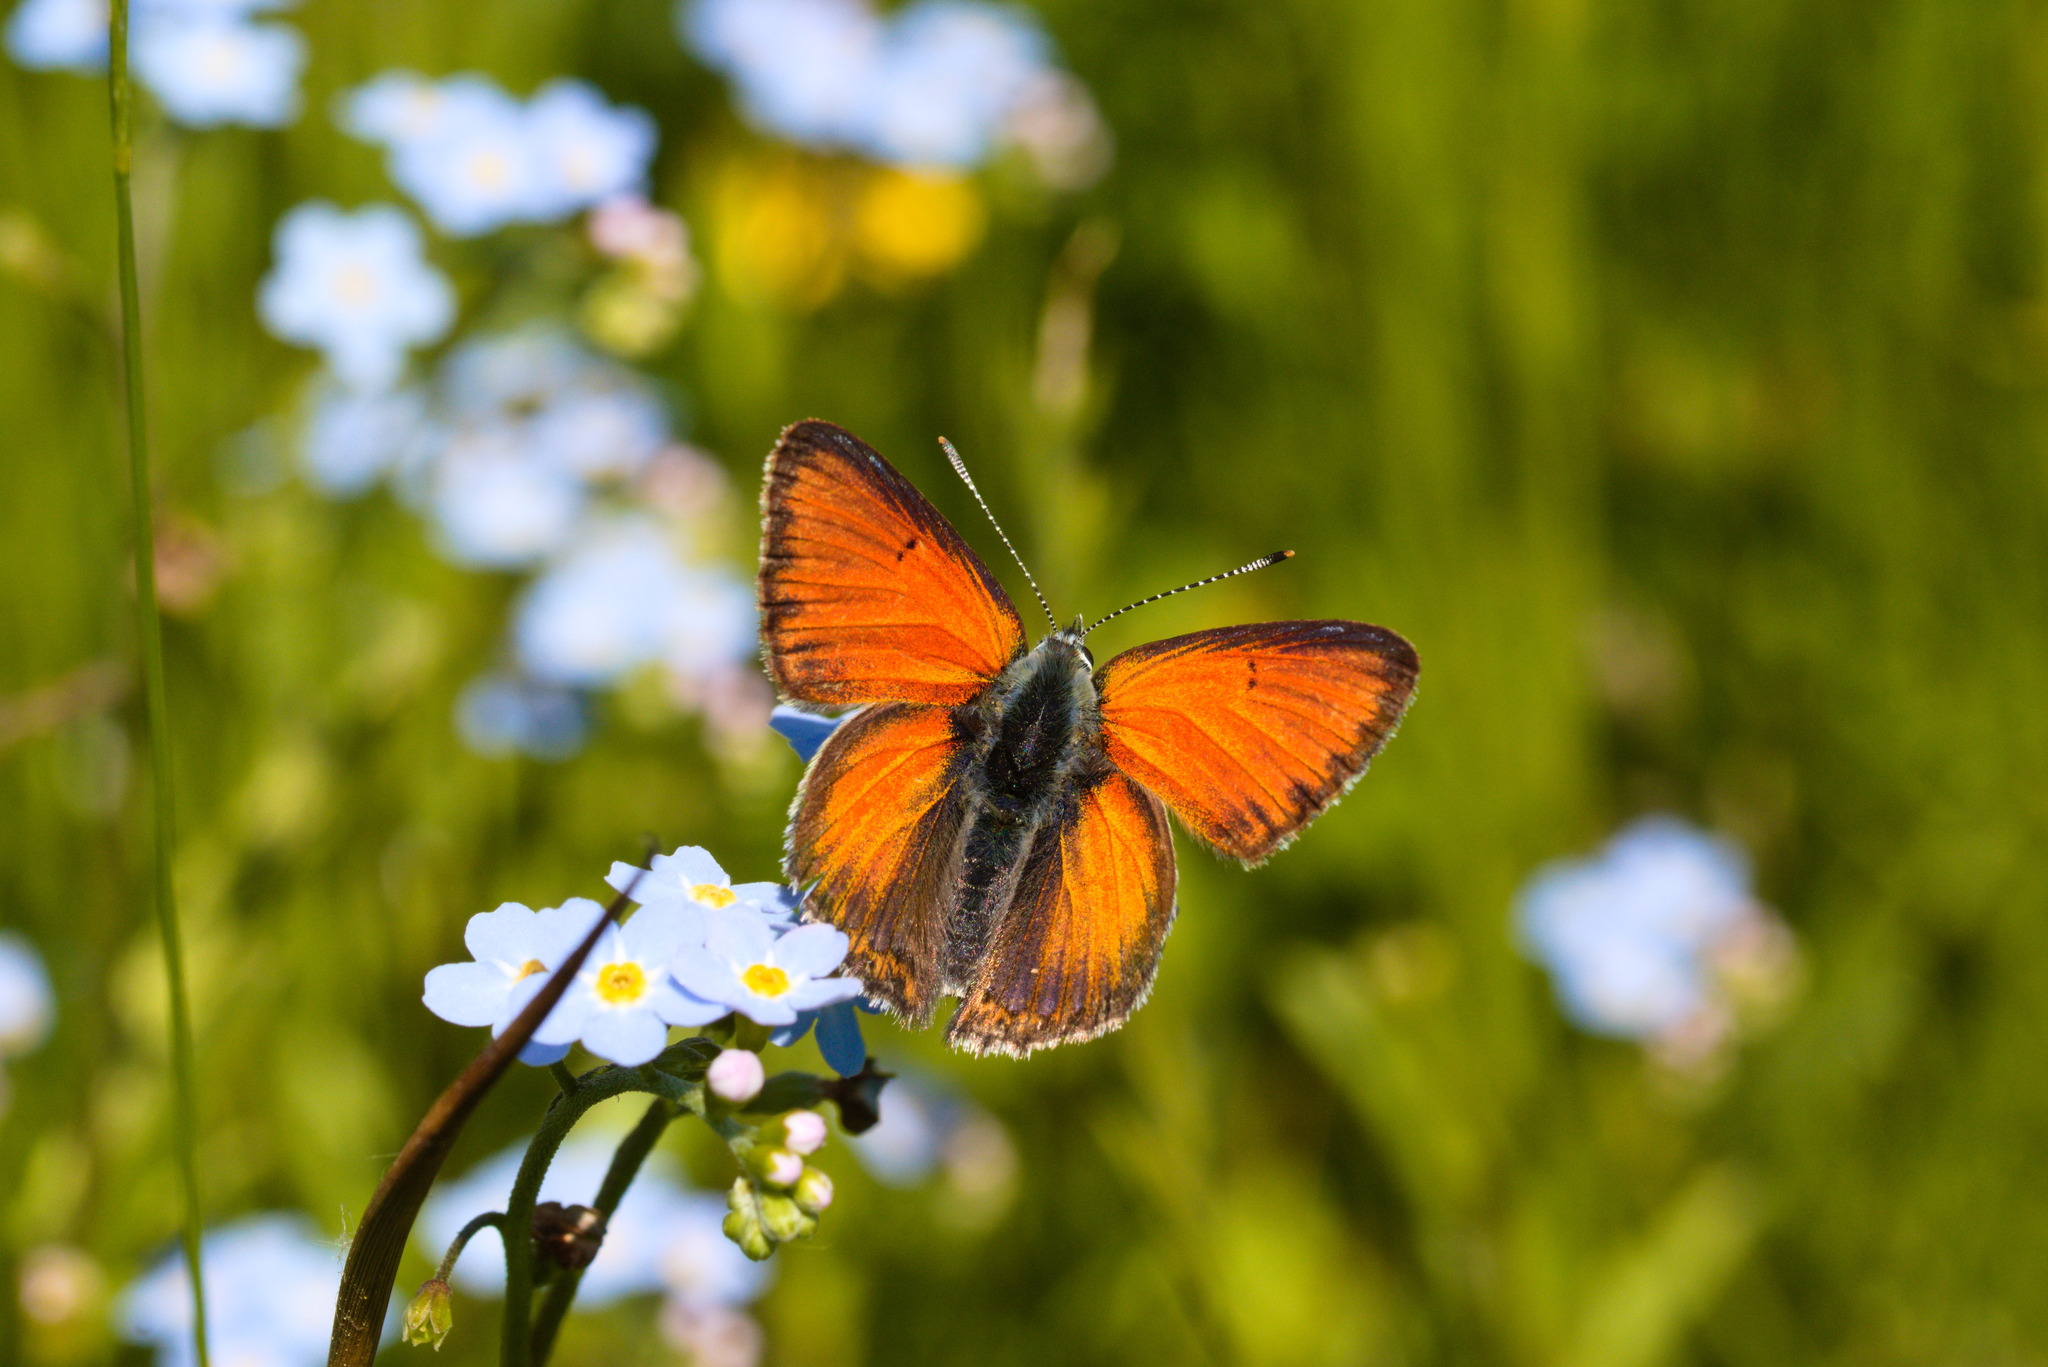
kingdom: Animalia
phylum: Arthropoda
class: Insecta
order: Lepidoptera
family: Lycaenidae
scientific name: Lycaenidae
